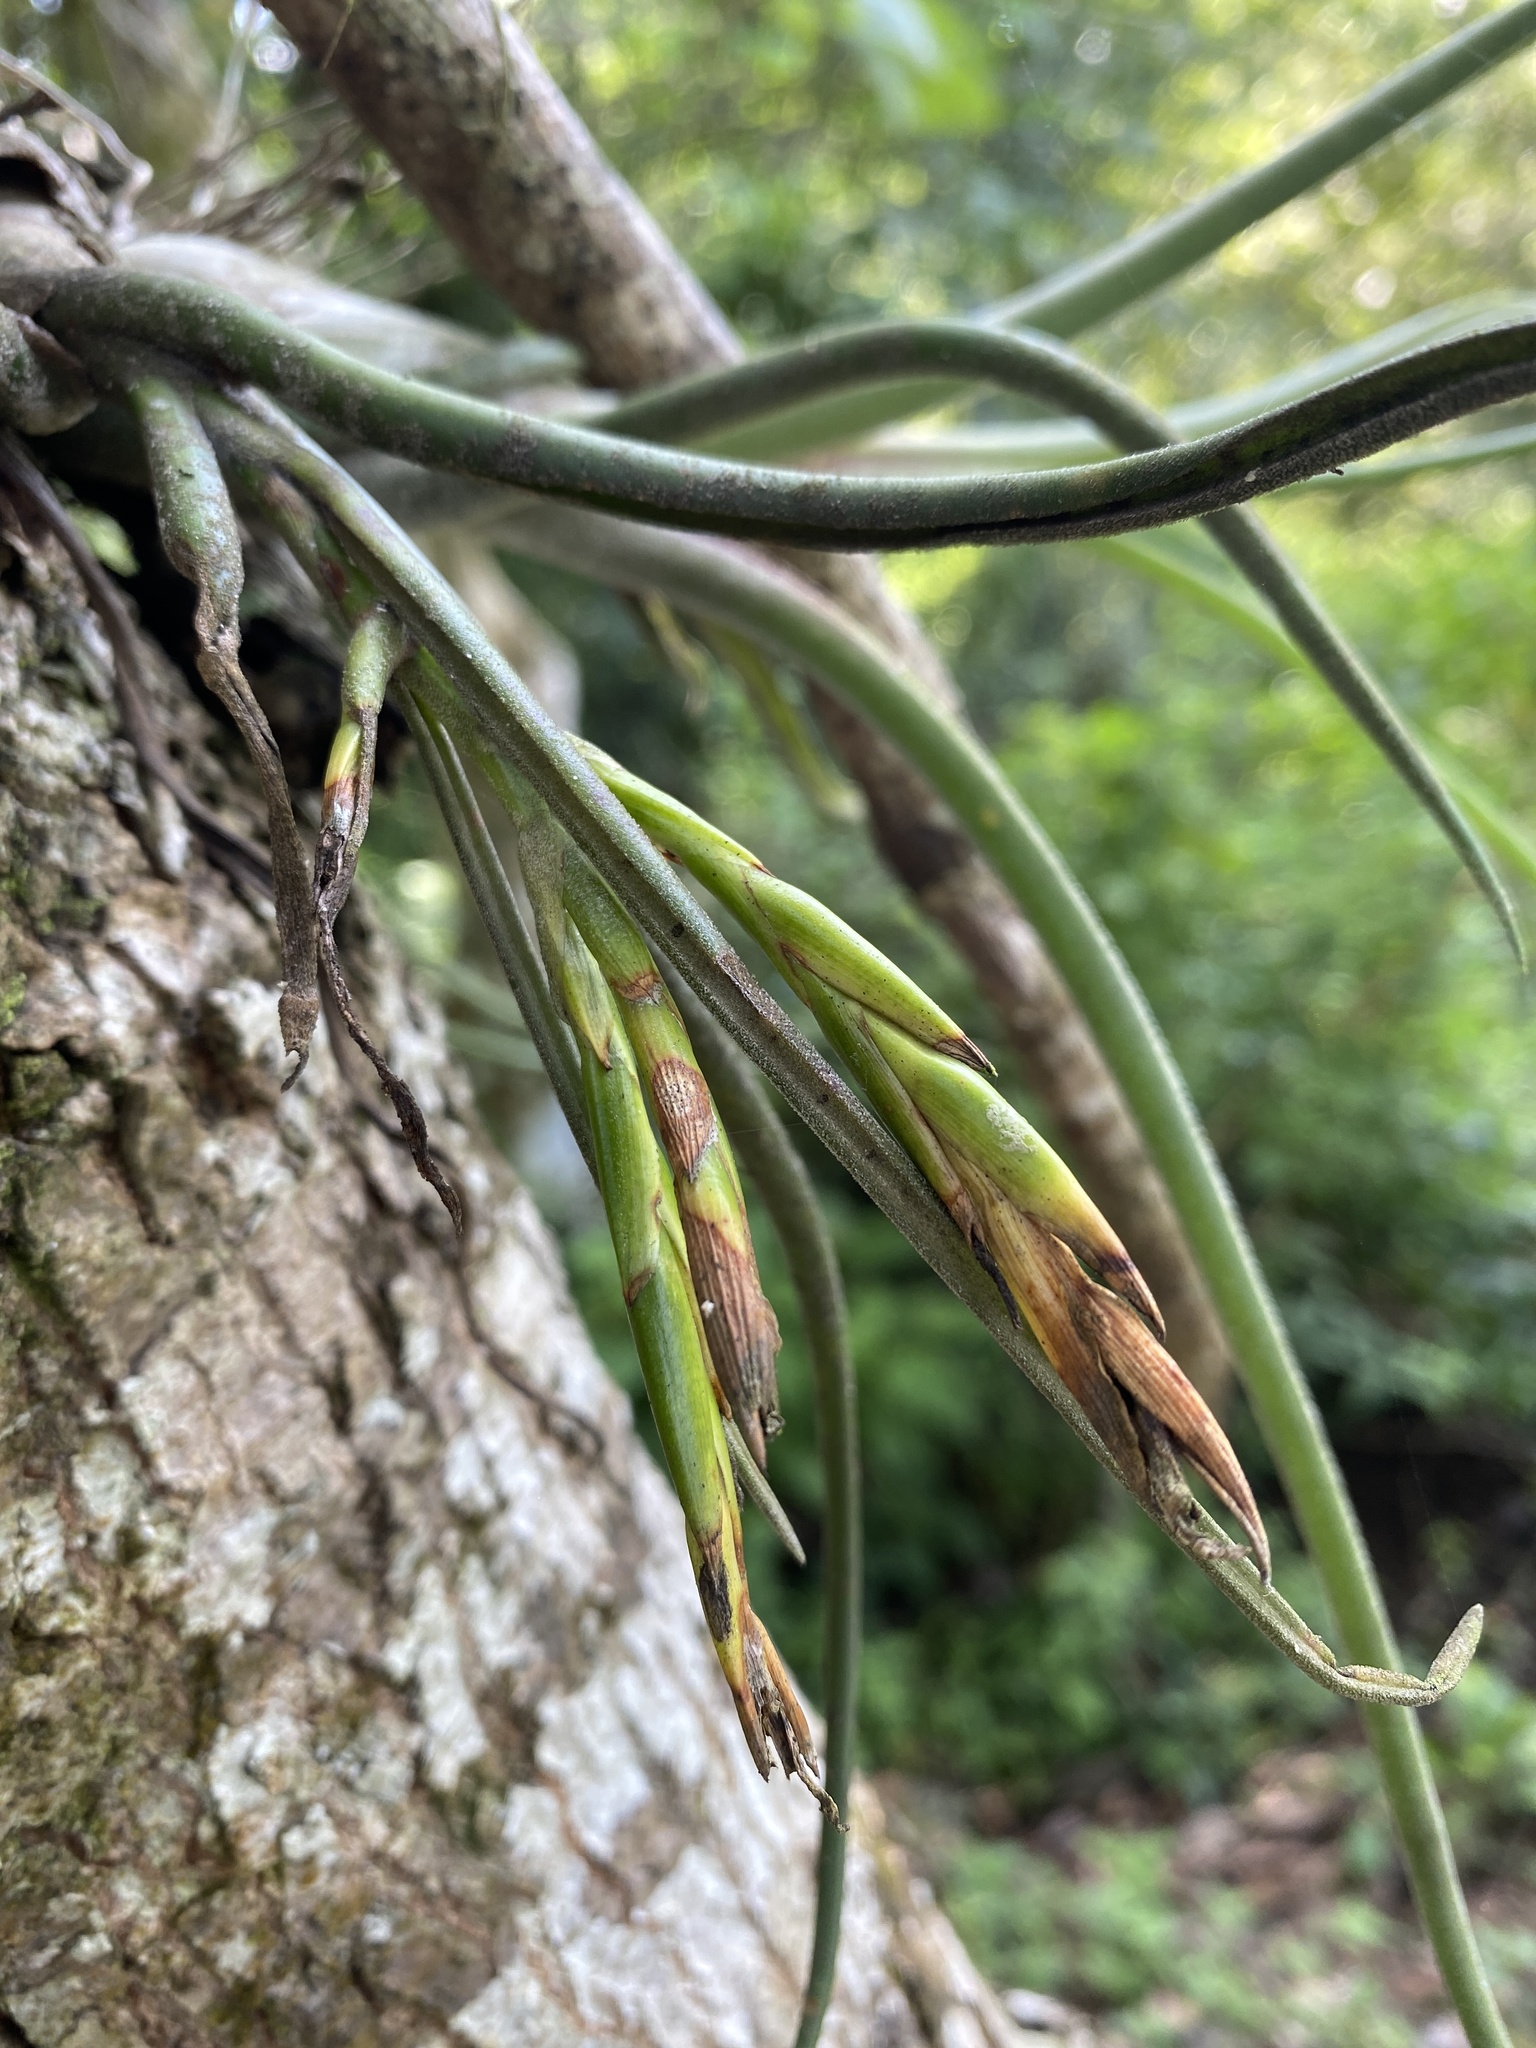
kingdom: Plantae
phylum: Tracheophyta
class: Liliopsida
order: Poales
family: Bromeliaceae
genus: Tillandsia
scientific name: Tillandsia caput-medusae
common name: Octopus plant
